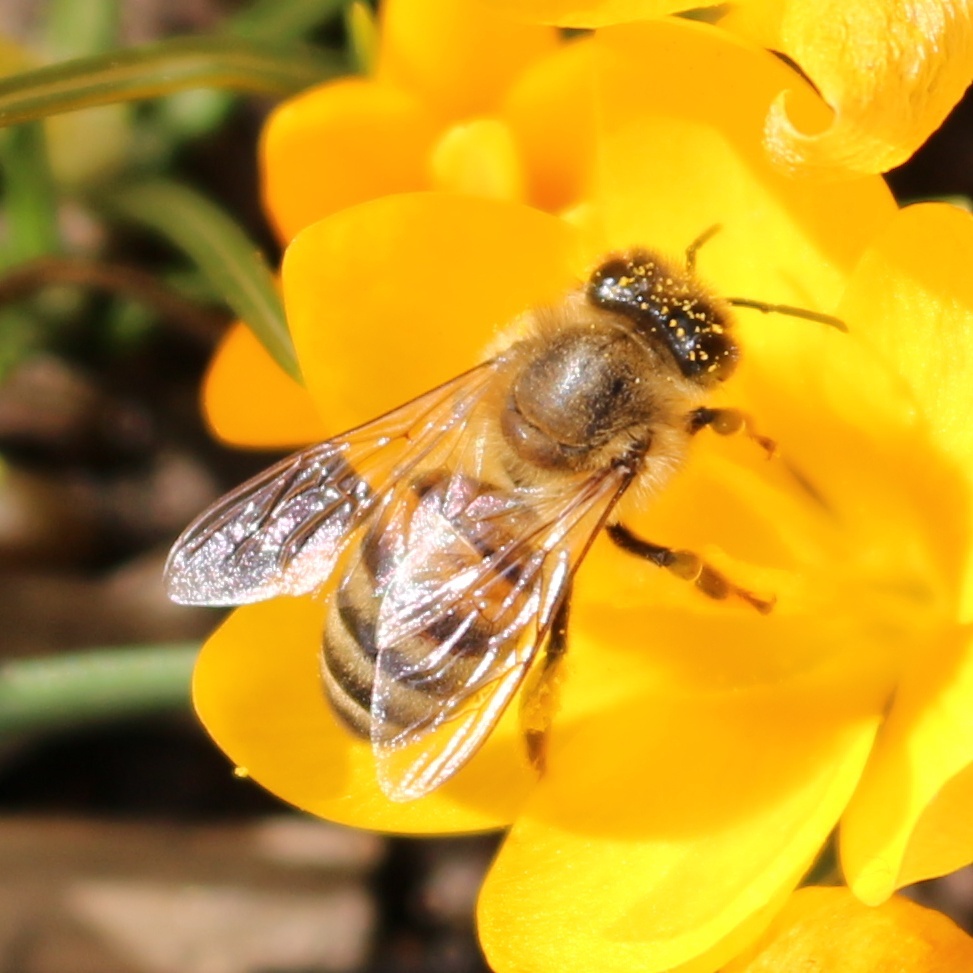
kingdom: Animalia
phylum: Arthropoda
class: Insecta
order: Hymenoptera
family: Apidae
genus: Apis
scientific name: Apis mellifera
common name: Honey bee
